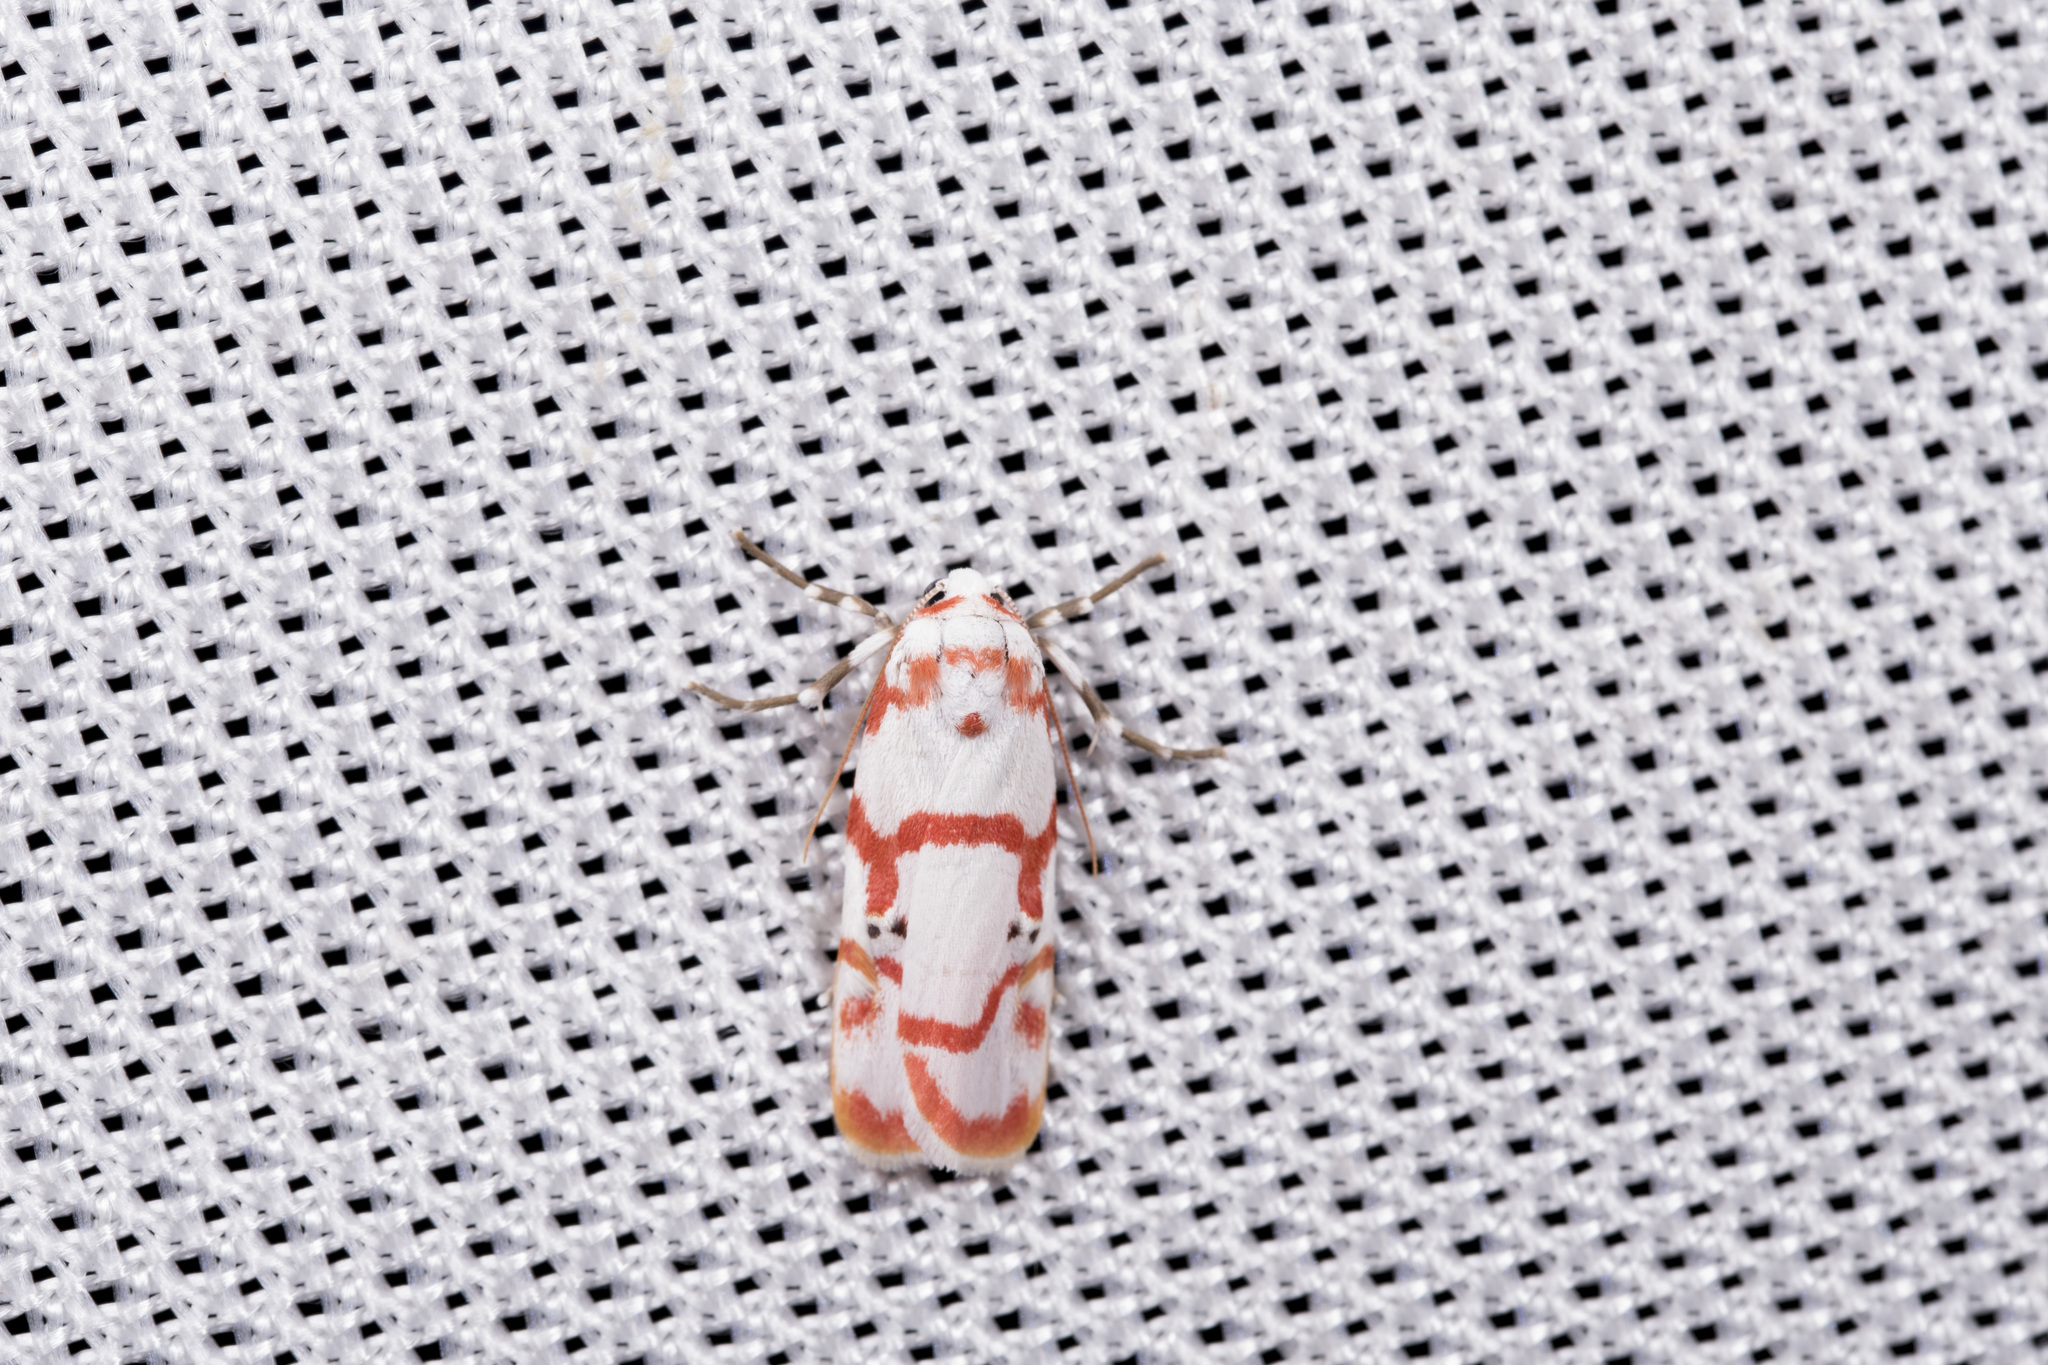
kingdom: Animalia
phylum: Arthropoda
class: Insecta
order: Lepidoptera
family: Erebidae
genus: Cyana
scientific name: Cyana hamata
